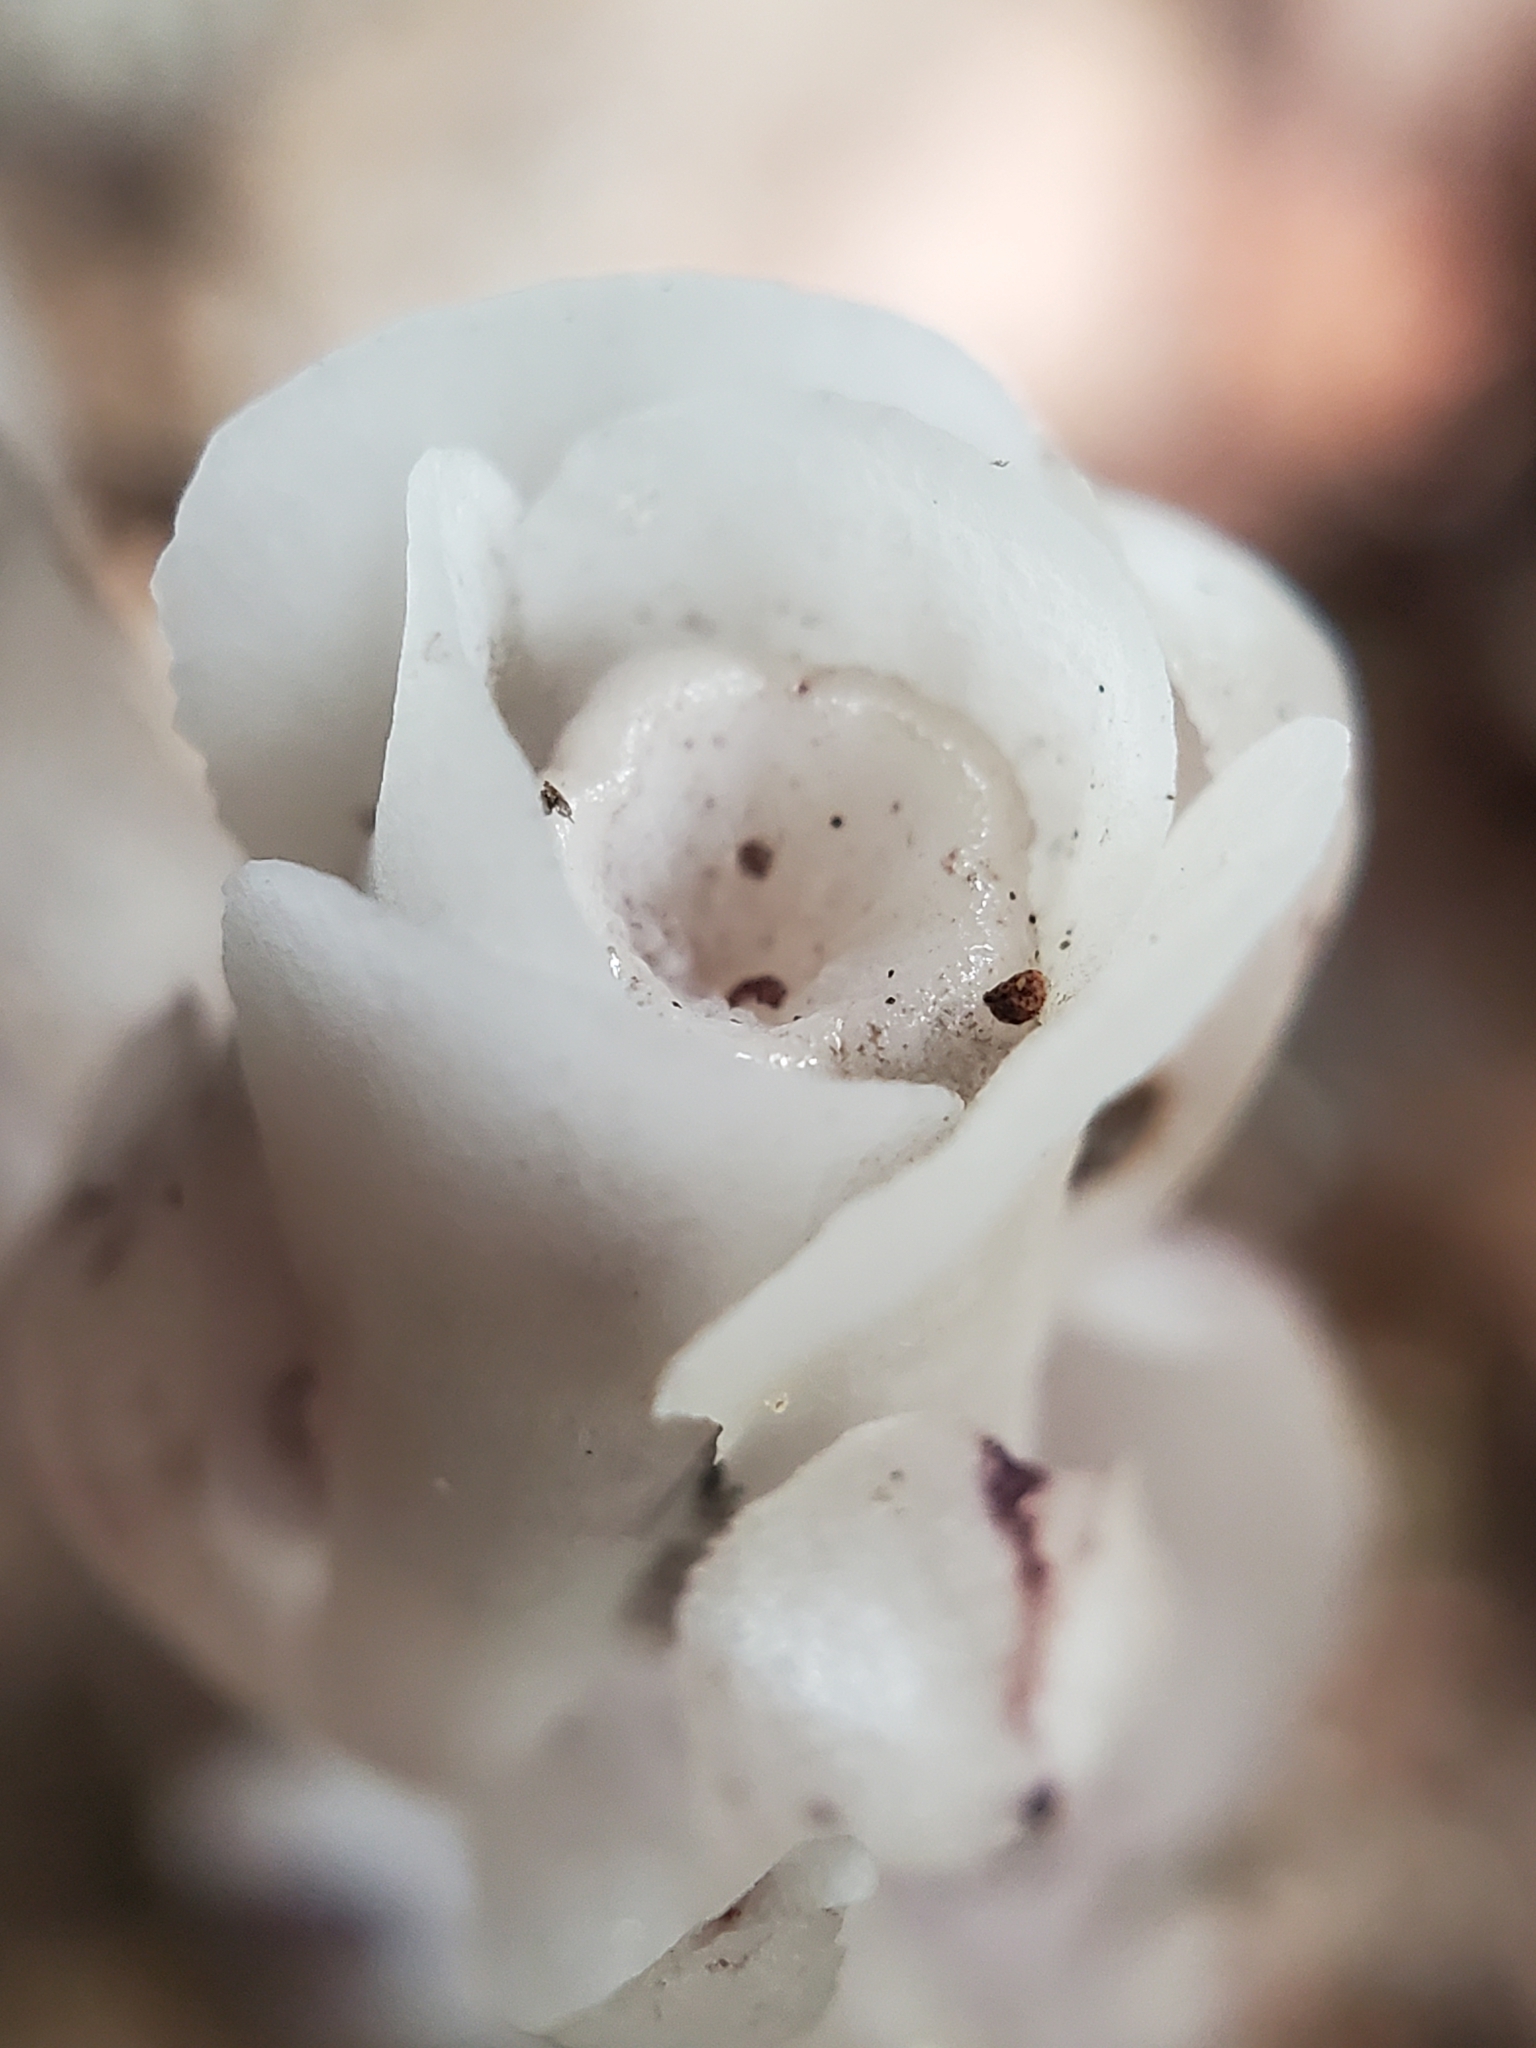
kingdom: Plantae
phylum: Tracheophyta
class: Magnoliopsida
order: Ericales
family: Ericaceae
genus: Monotropa
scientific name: Monotropa uniflora
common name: Convulsion root
